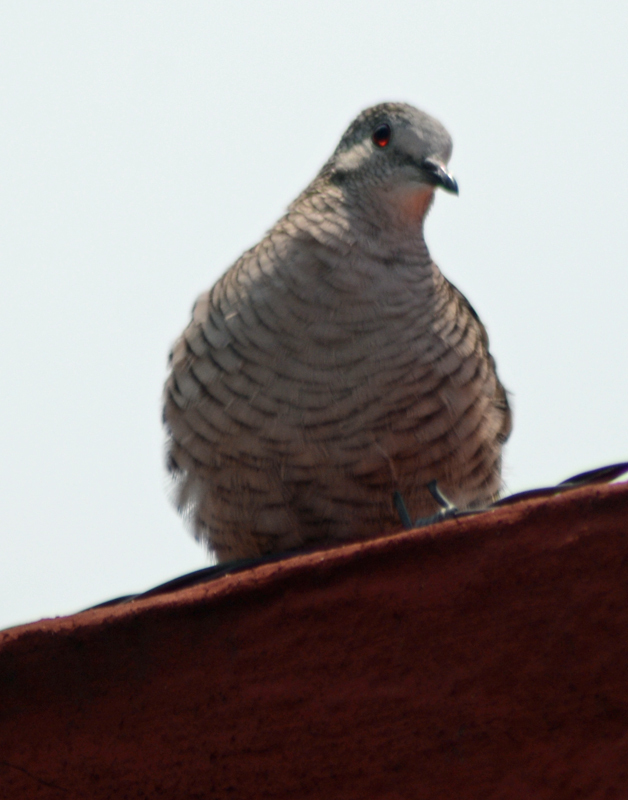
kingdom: Animalia
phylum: Chordata
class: Aves
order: Columbiformes
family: Columbidae
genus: Columbina
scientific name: Columbina inca
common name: Inca dove
